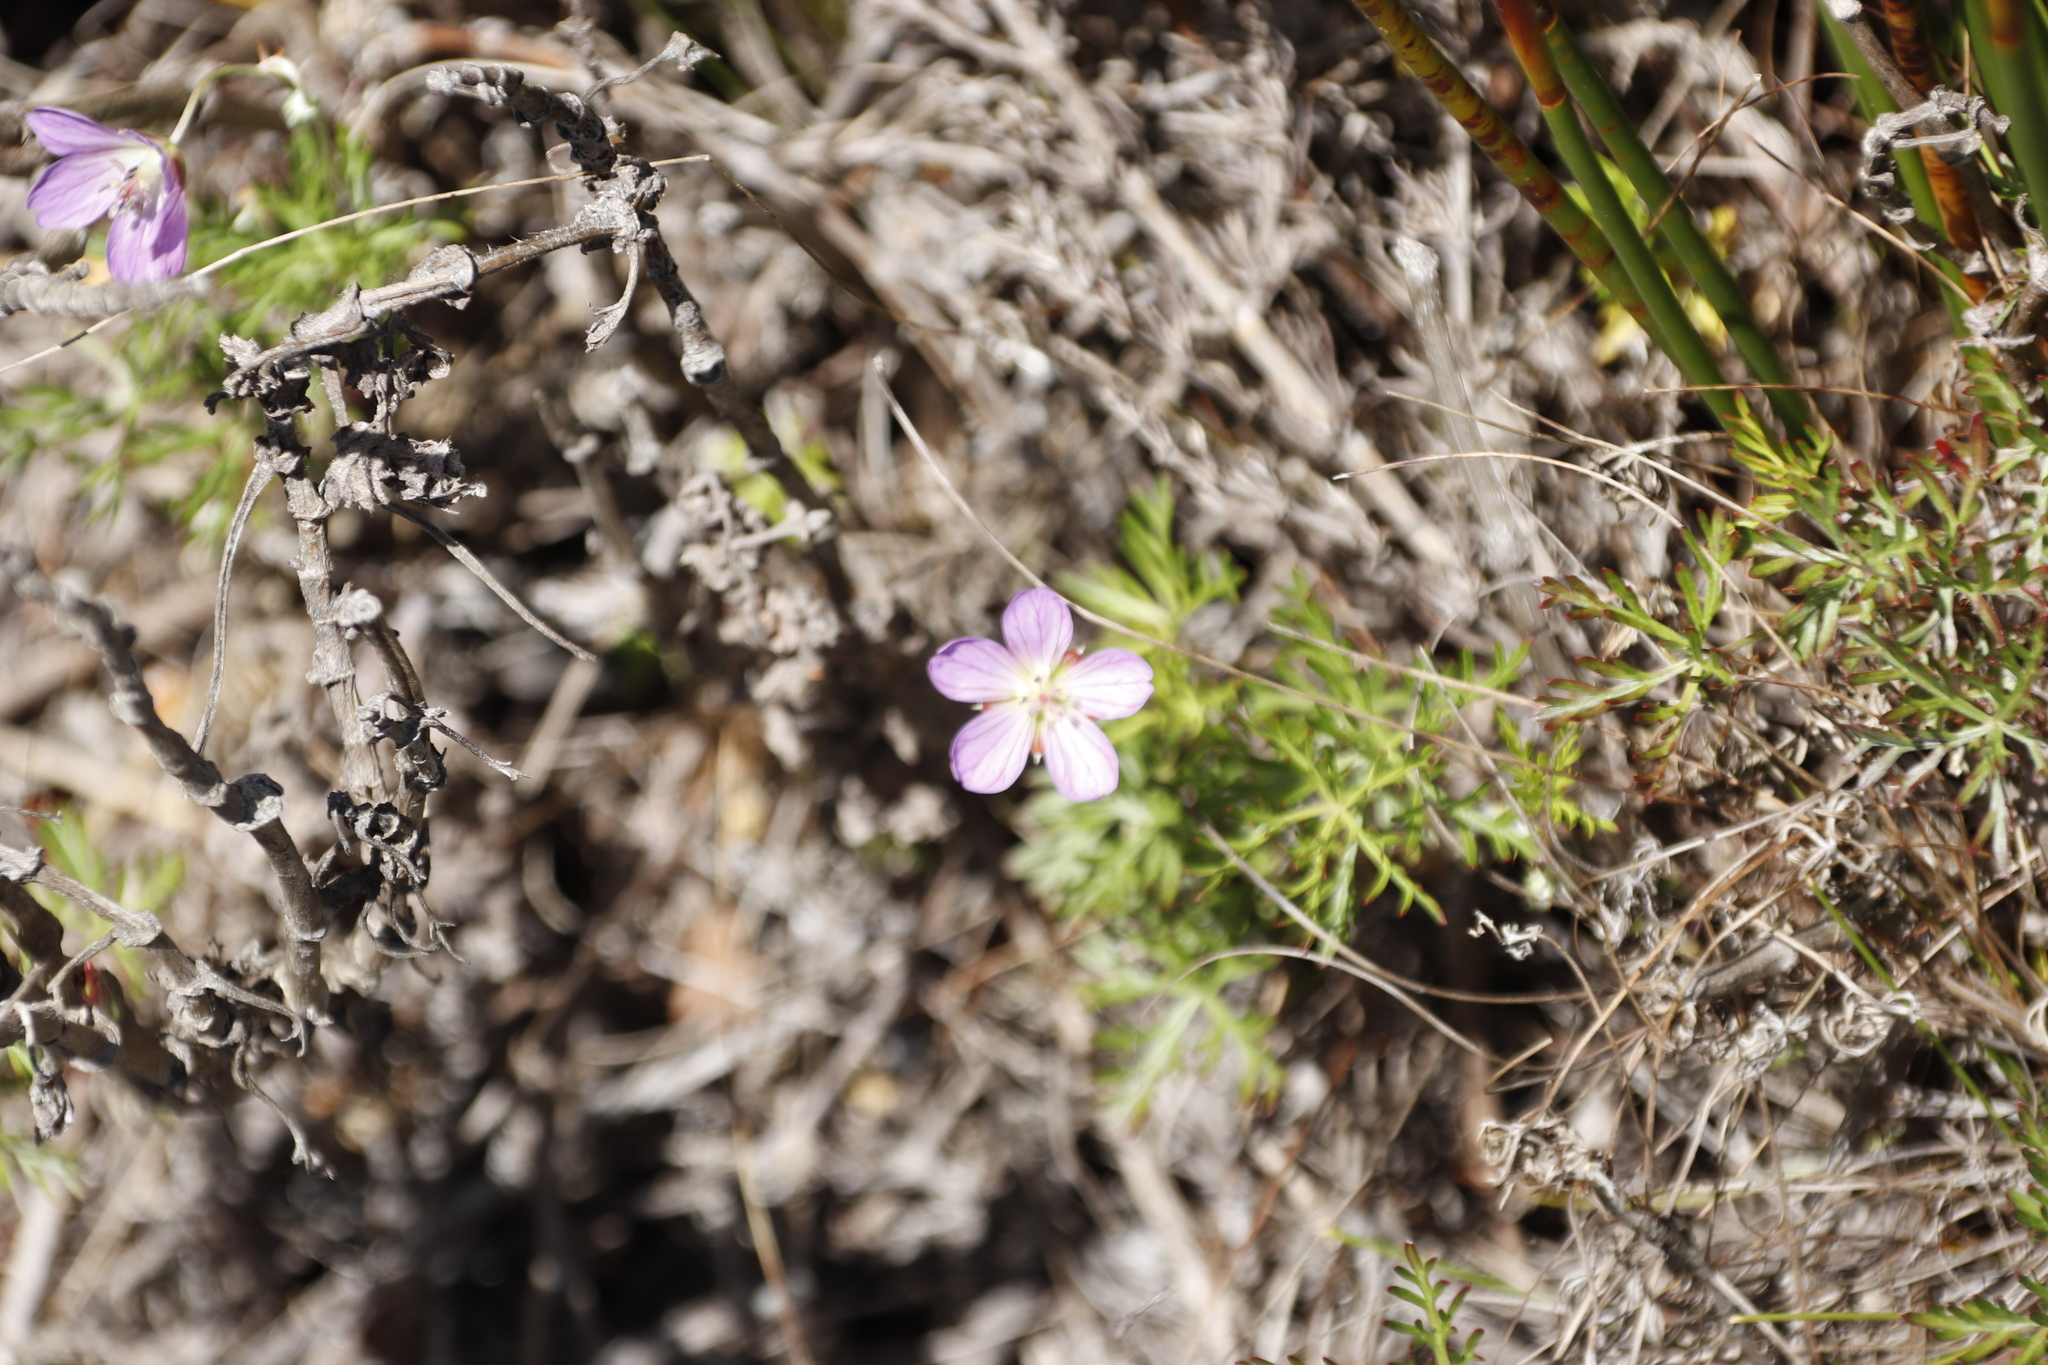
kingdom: Plantae
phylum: Tracheophyta
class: Magnoliopsida
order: Geraniales
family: Geraniaceae
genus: Geranium
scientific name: Geranium incanum
